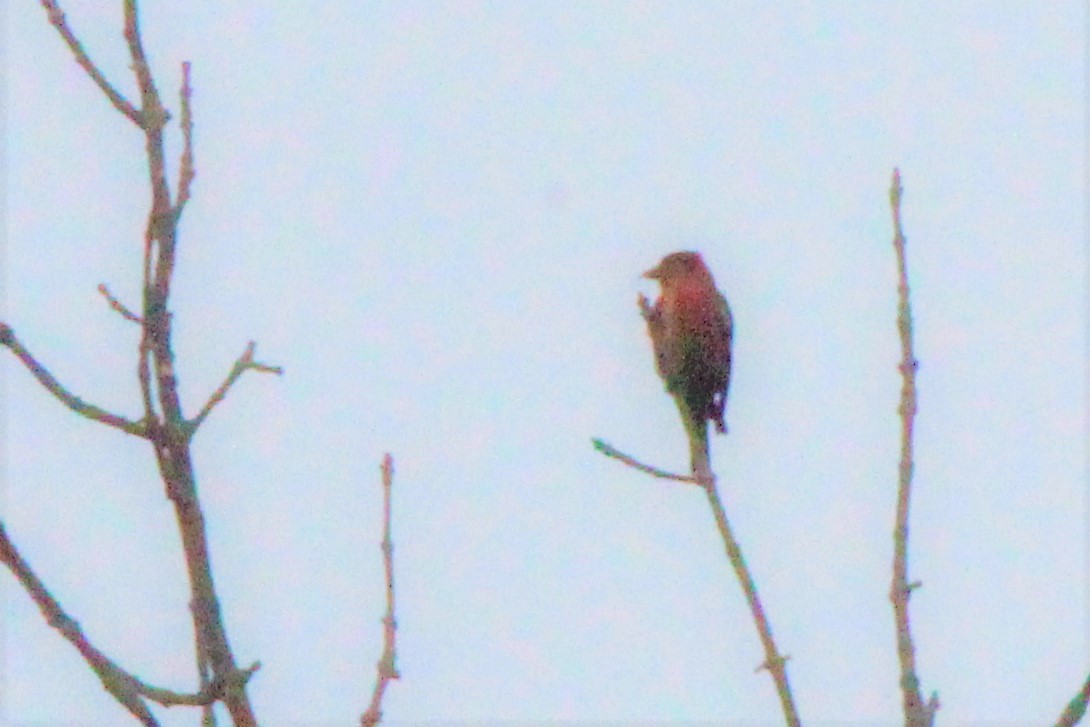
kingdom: Animalia
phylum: Chordata
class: Aves
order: Passeriformes
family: Fringillidae
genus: Loxia
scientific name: Loxia leucoptera
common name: Two-barred crossbill
